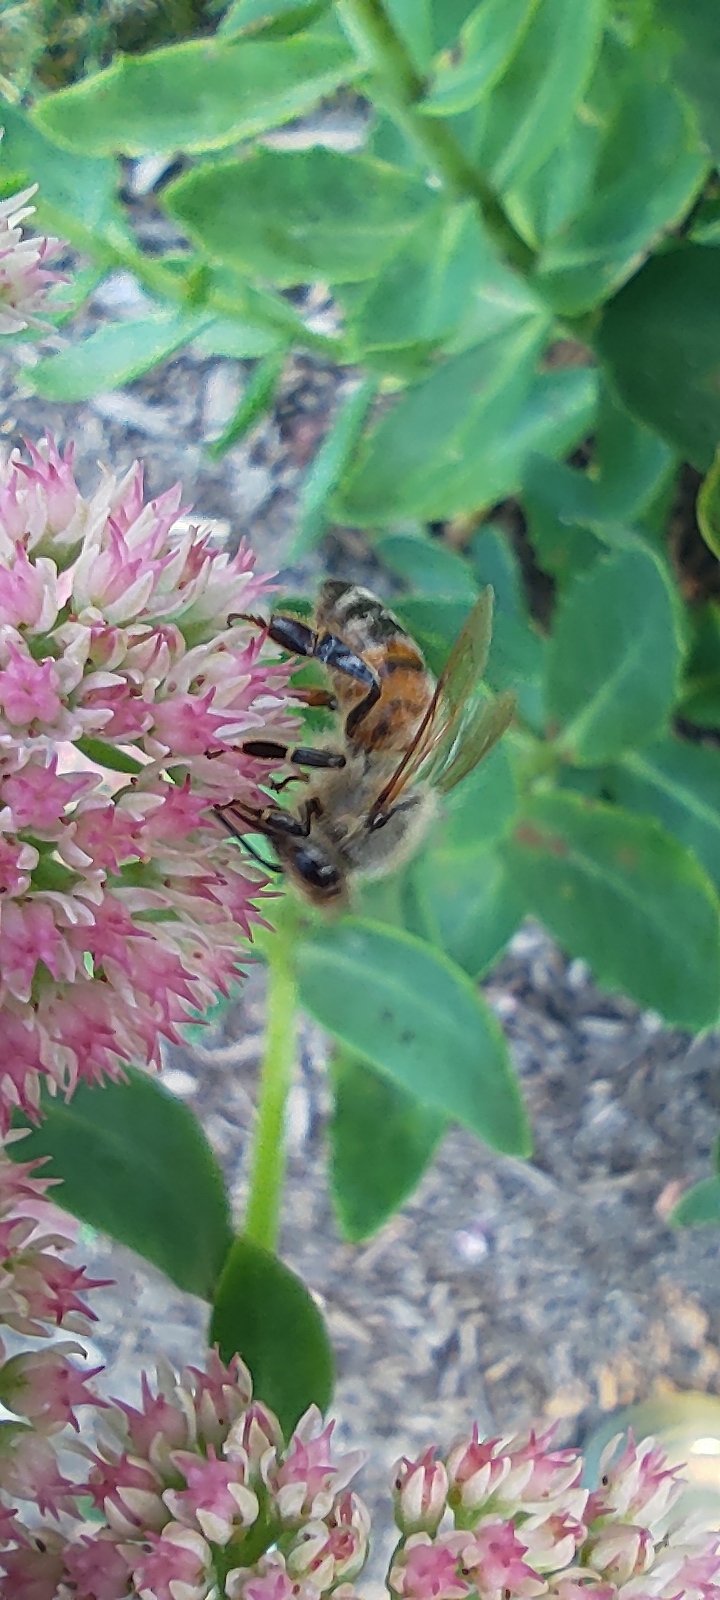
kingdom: Animalia
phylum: Arthropoda
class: Insecta
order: Hymenoptera
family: Apidae
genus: Apis
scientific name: Apis mellifera
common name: Honey bee
